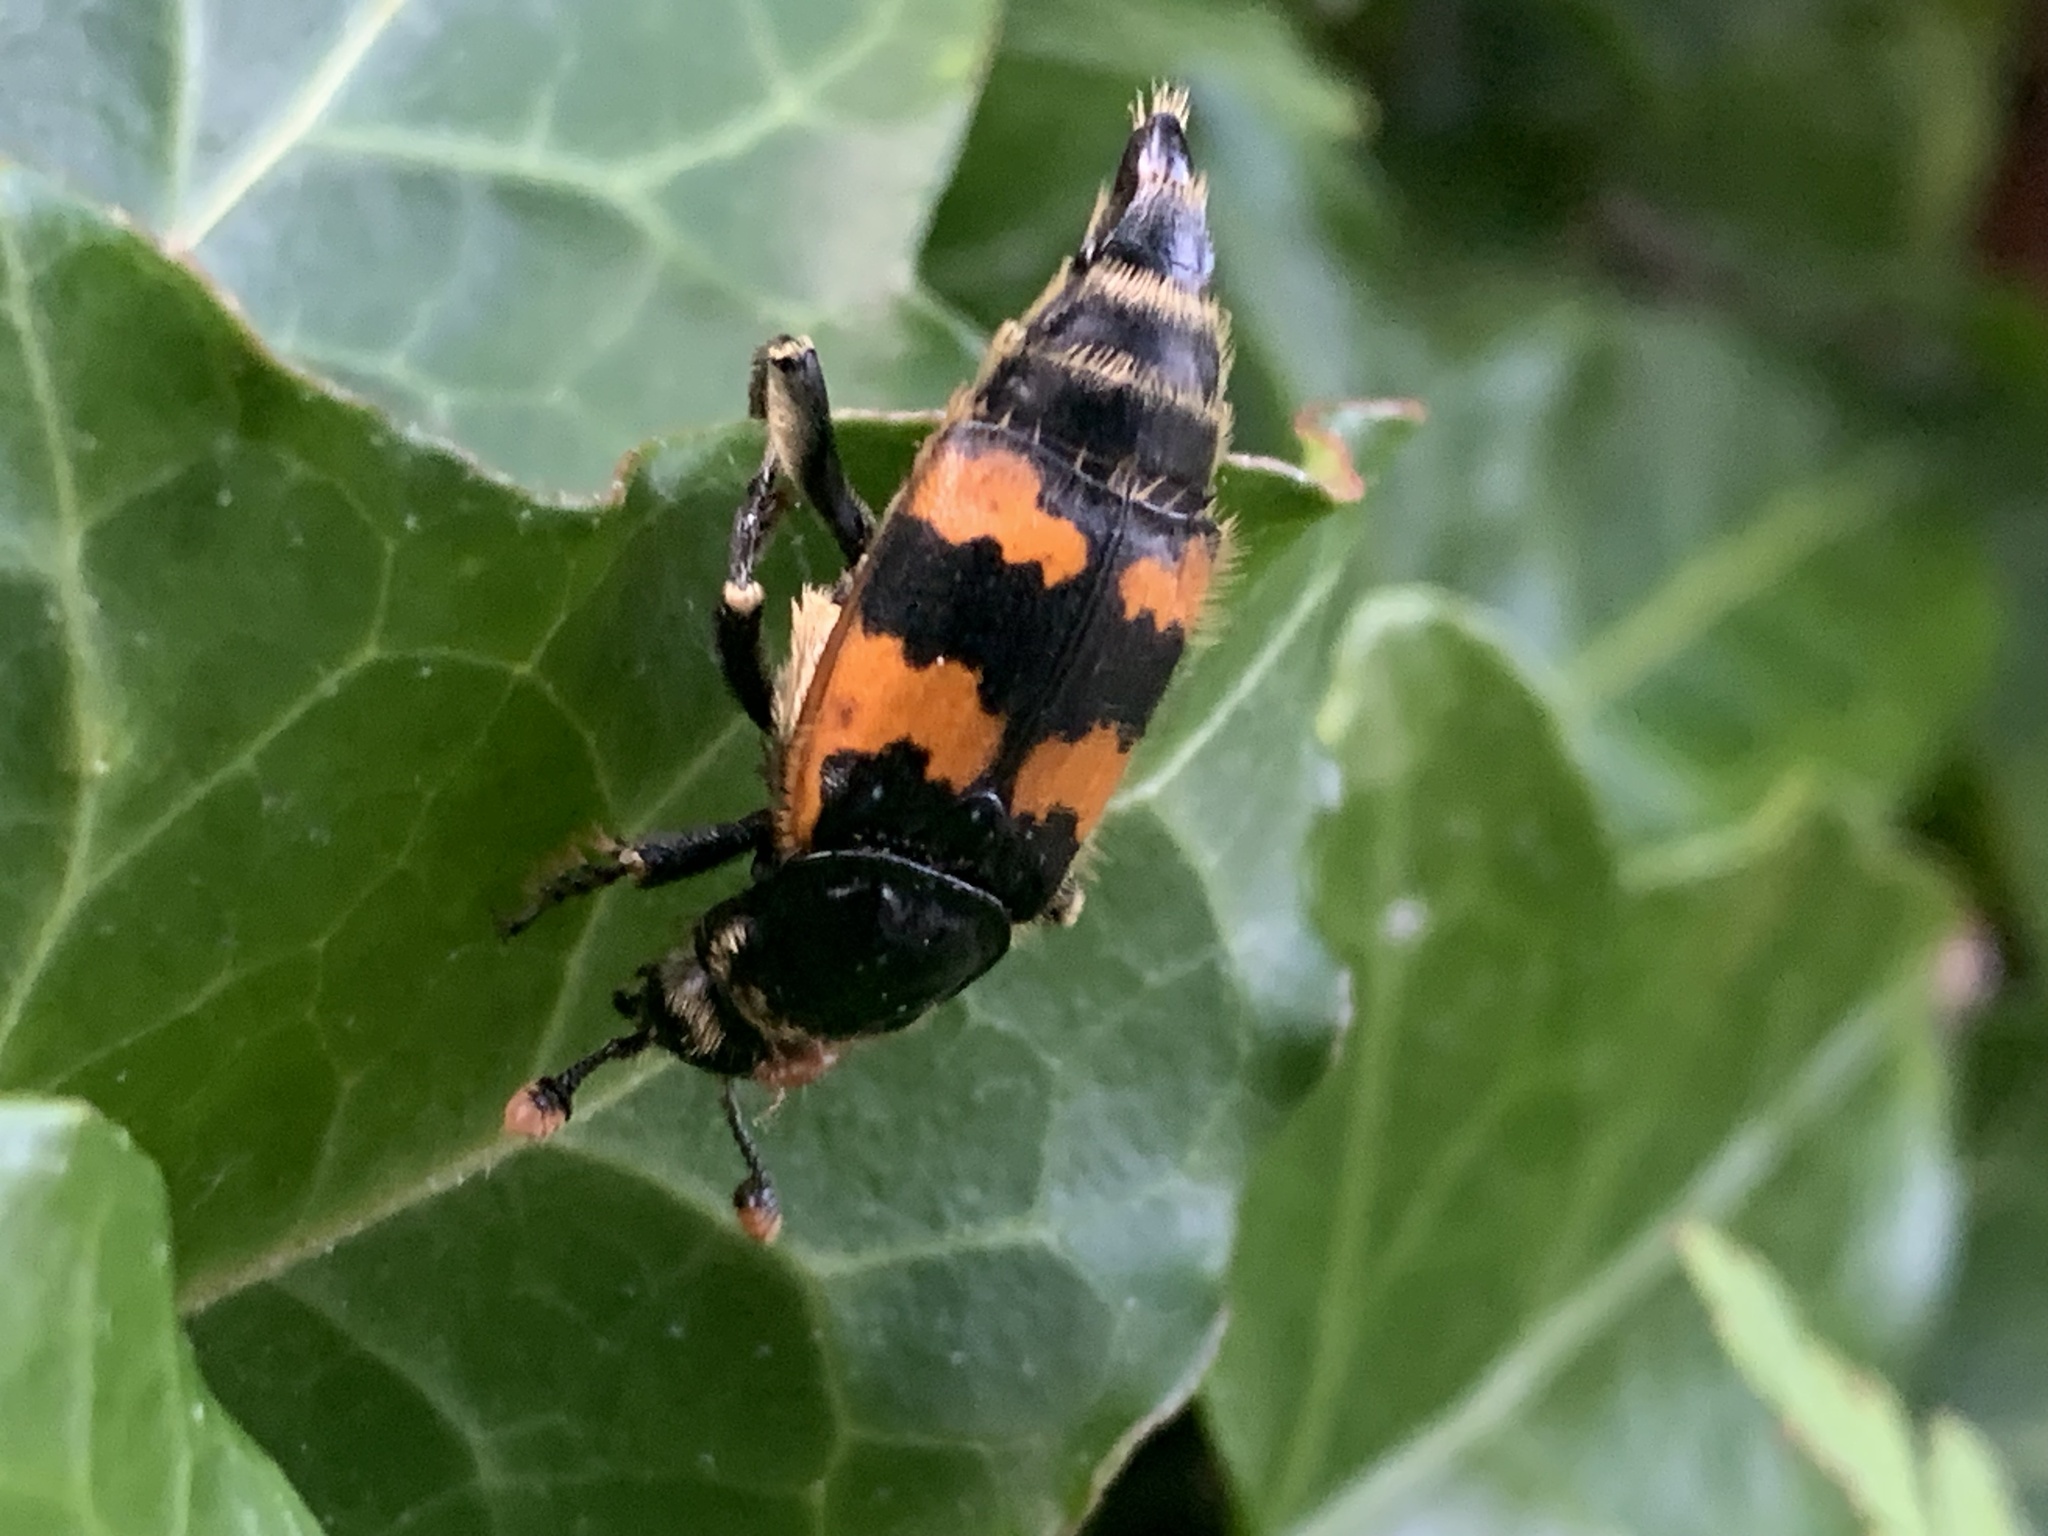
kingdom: Animalia
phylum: Arthropoda
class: Insecta
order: Coleoptera
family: Staphylinidae
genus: Nicrophorus
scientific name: Nicrophorus vespillo
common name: Common burying beetle
